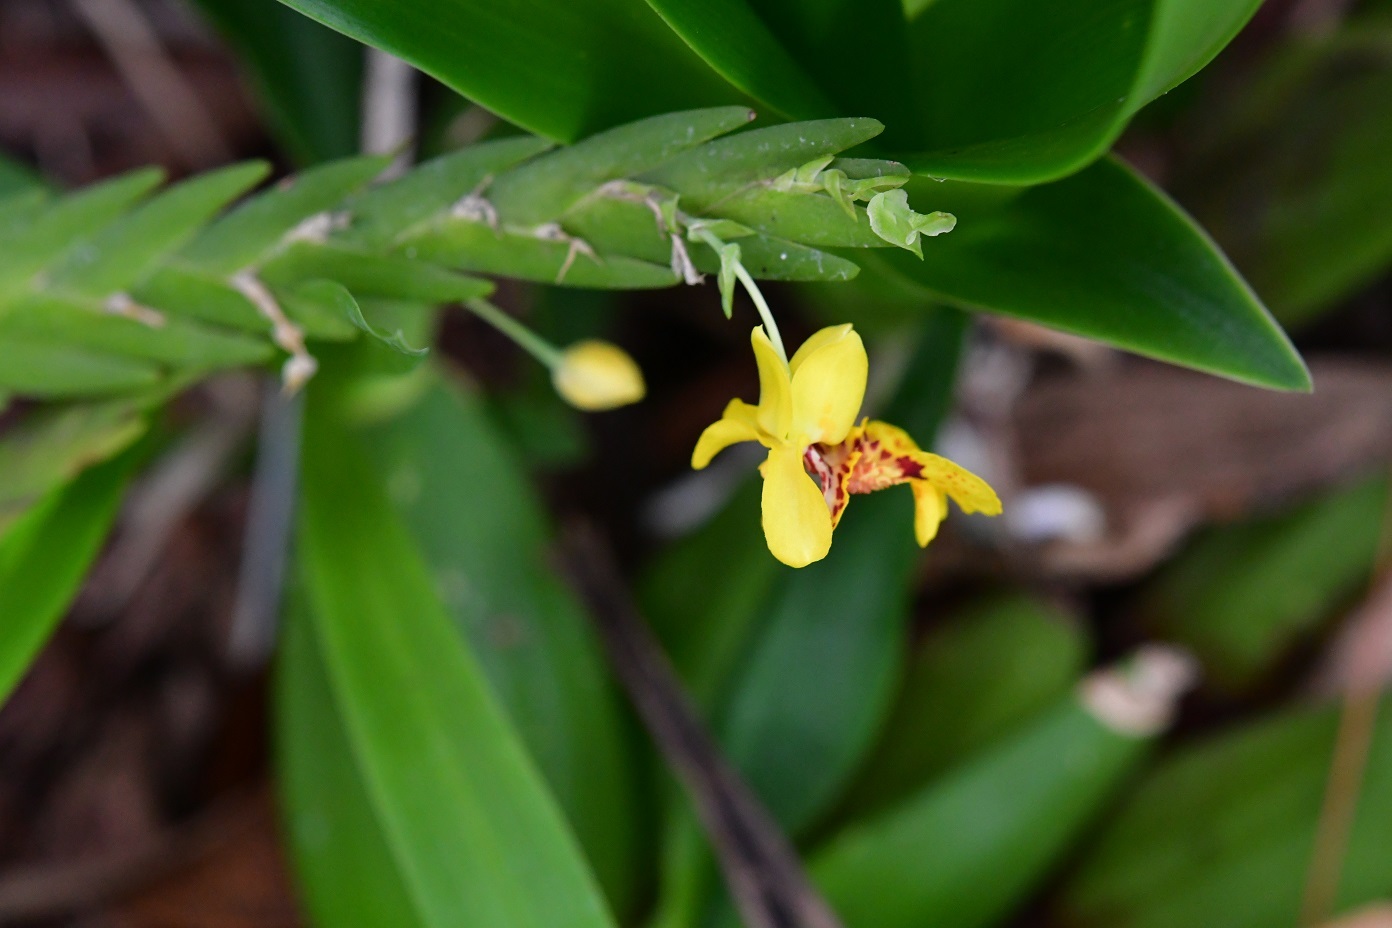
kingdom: Plantae
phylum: Tracheophyta
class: Liliopsida
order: Asparagales
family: Orchidaceae
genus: Lockhartia
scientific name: Lockhartia oerstedii
